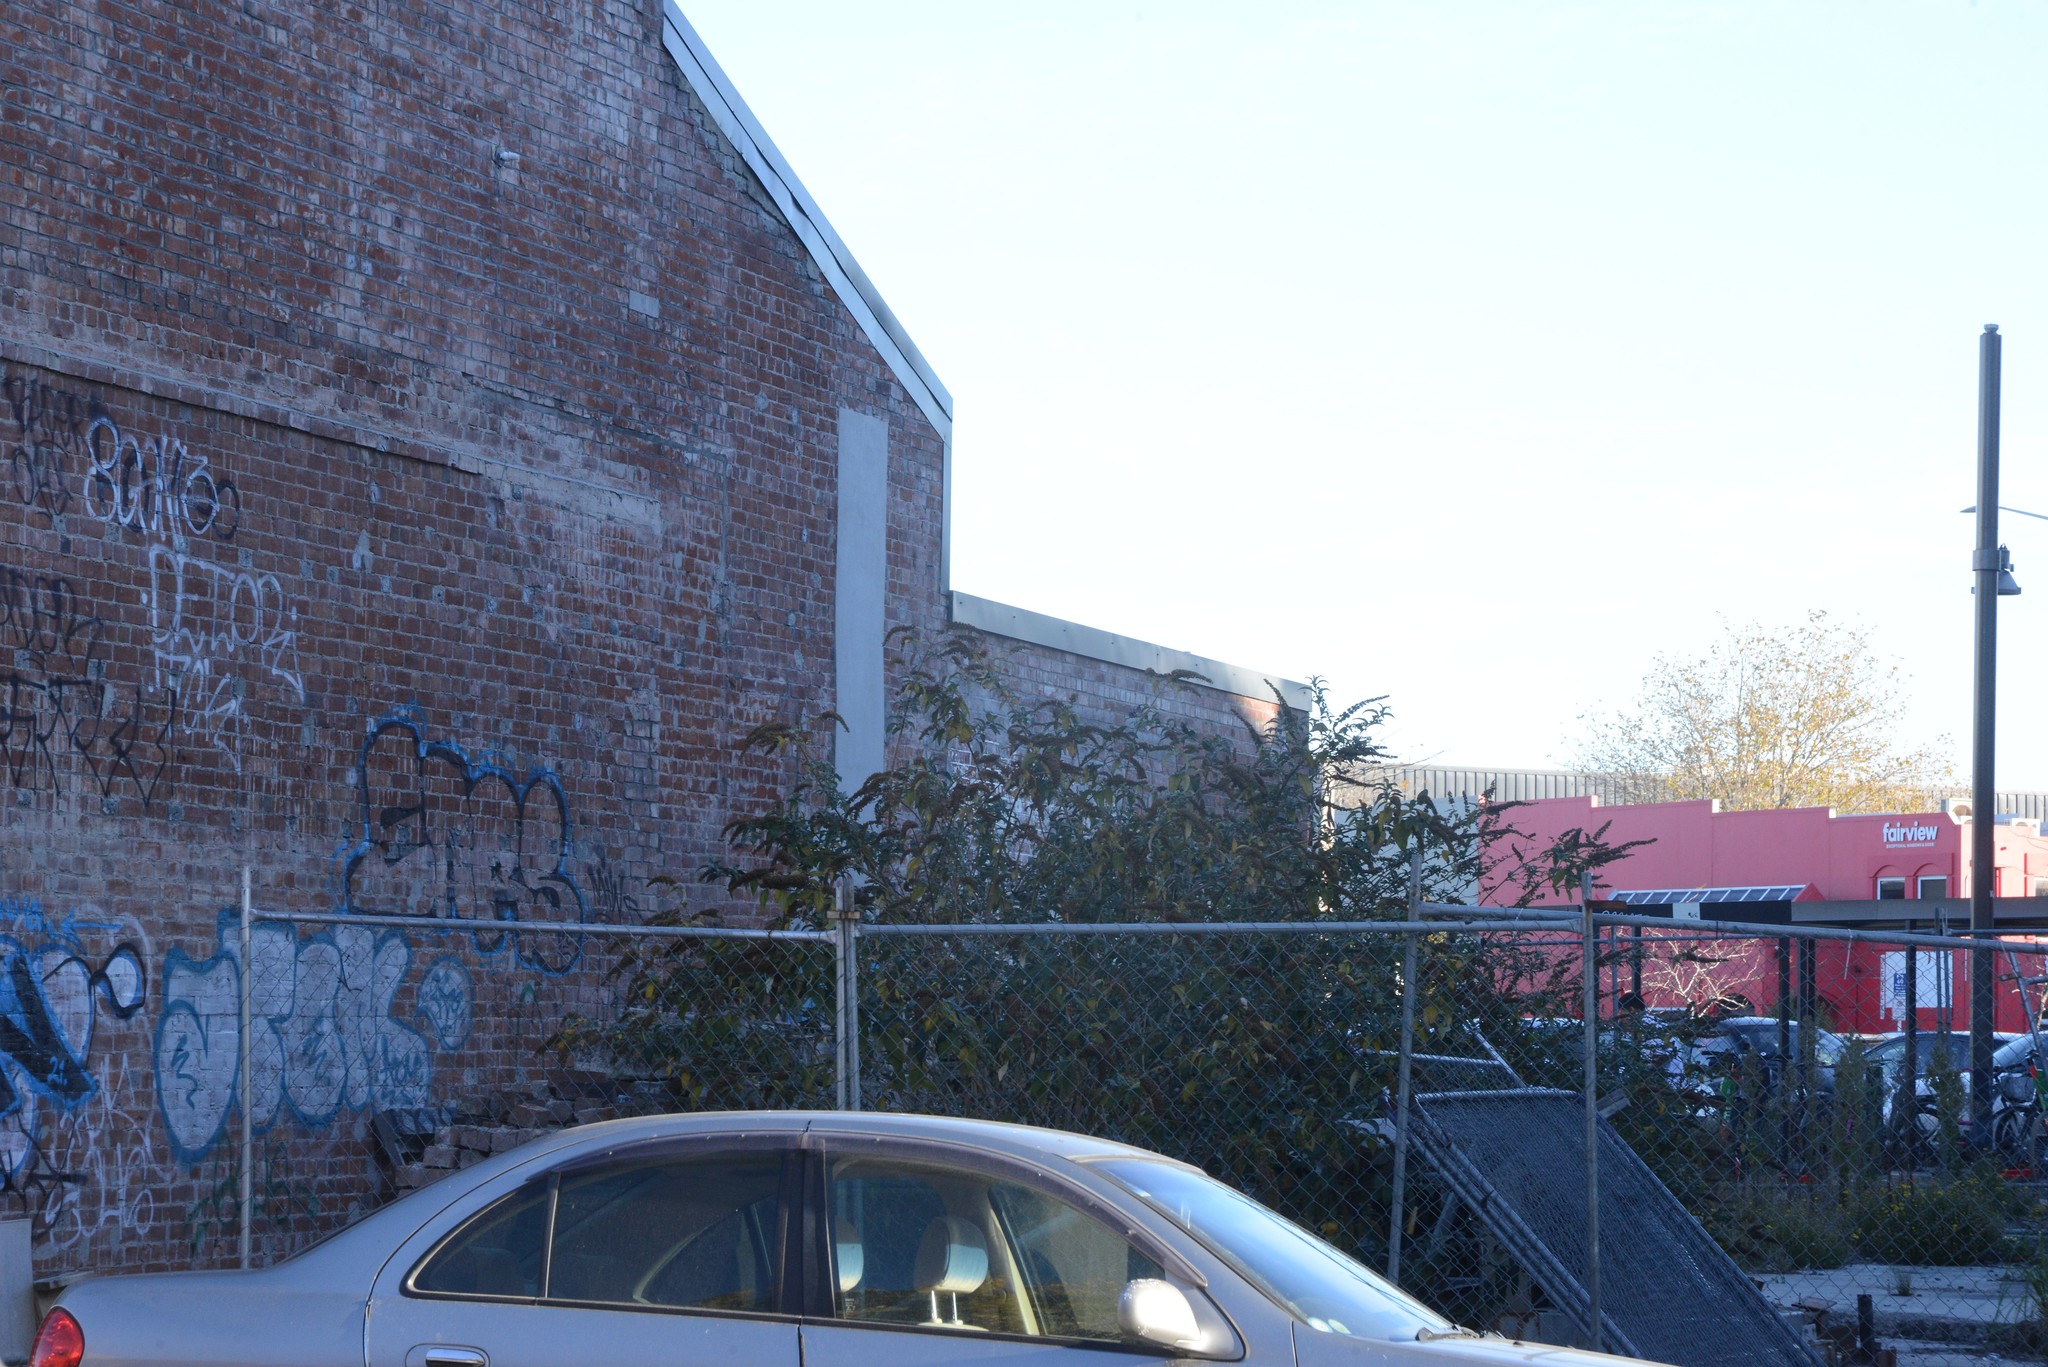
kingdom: Plantae
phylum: Tracheophyta
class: Magnoliopsida
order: Lamiales
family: Scrophulariaceae
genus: Buddleja
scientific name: Buddleja davidii
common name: Butterfly-bush
